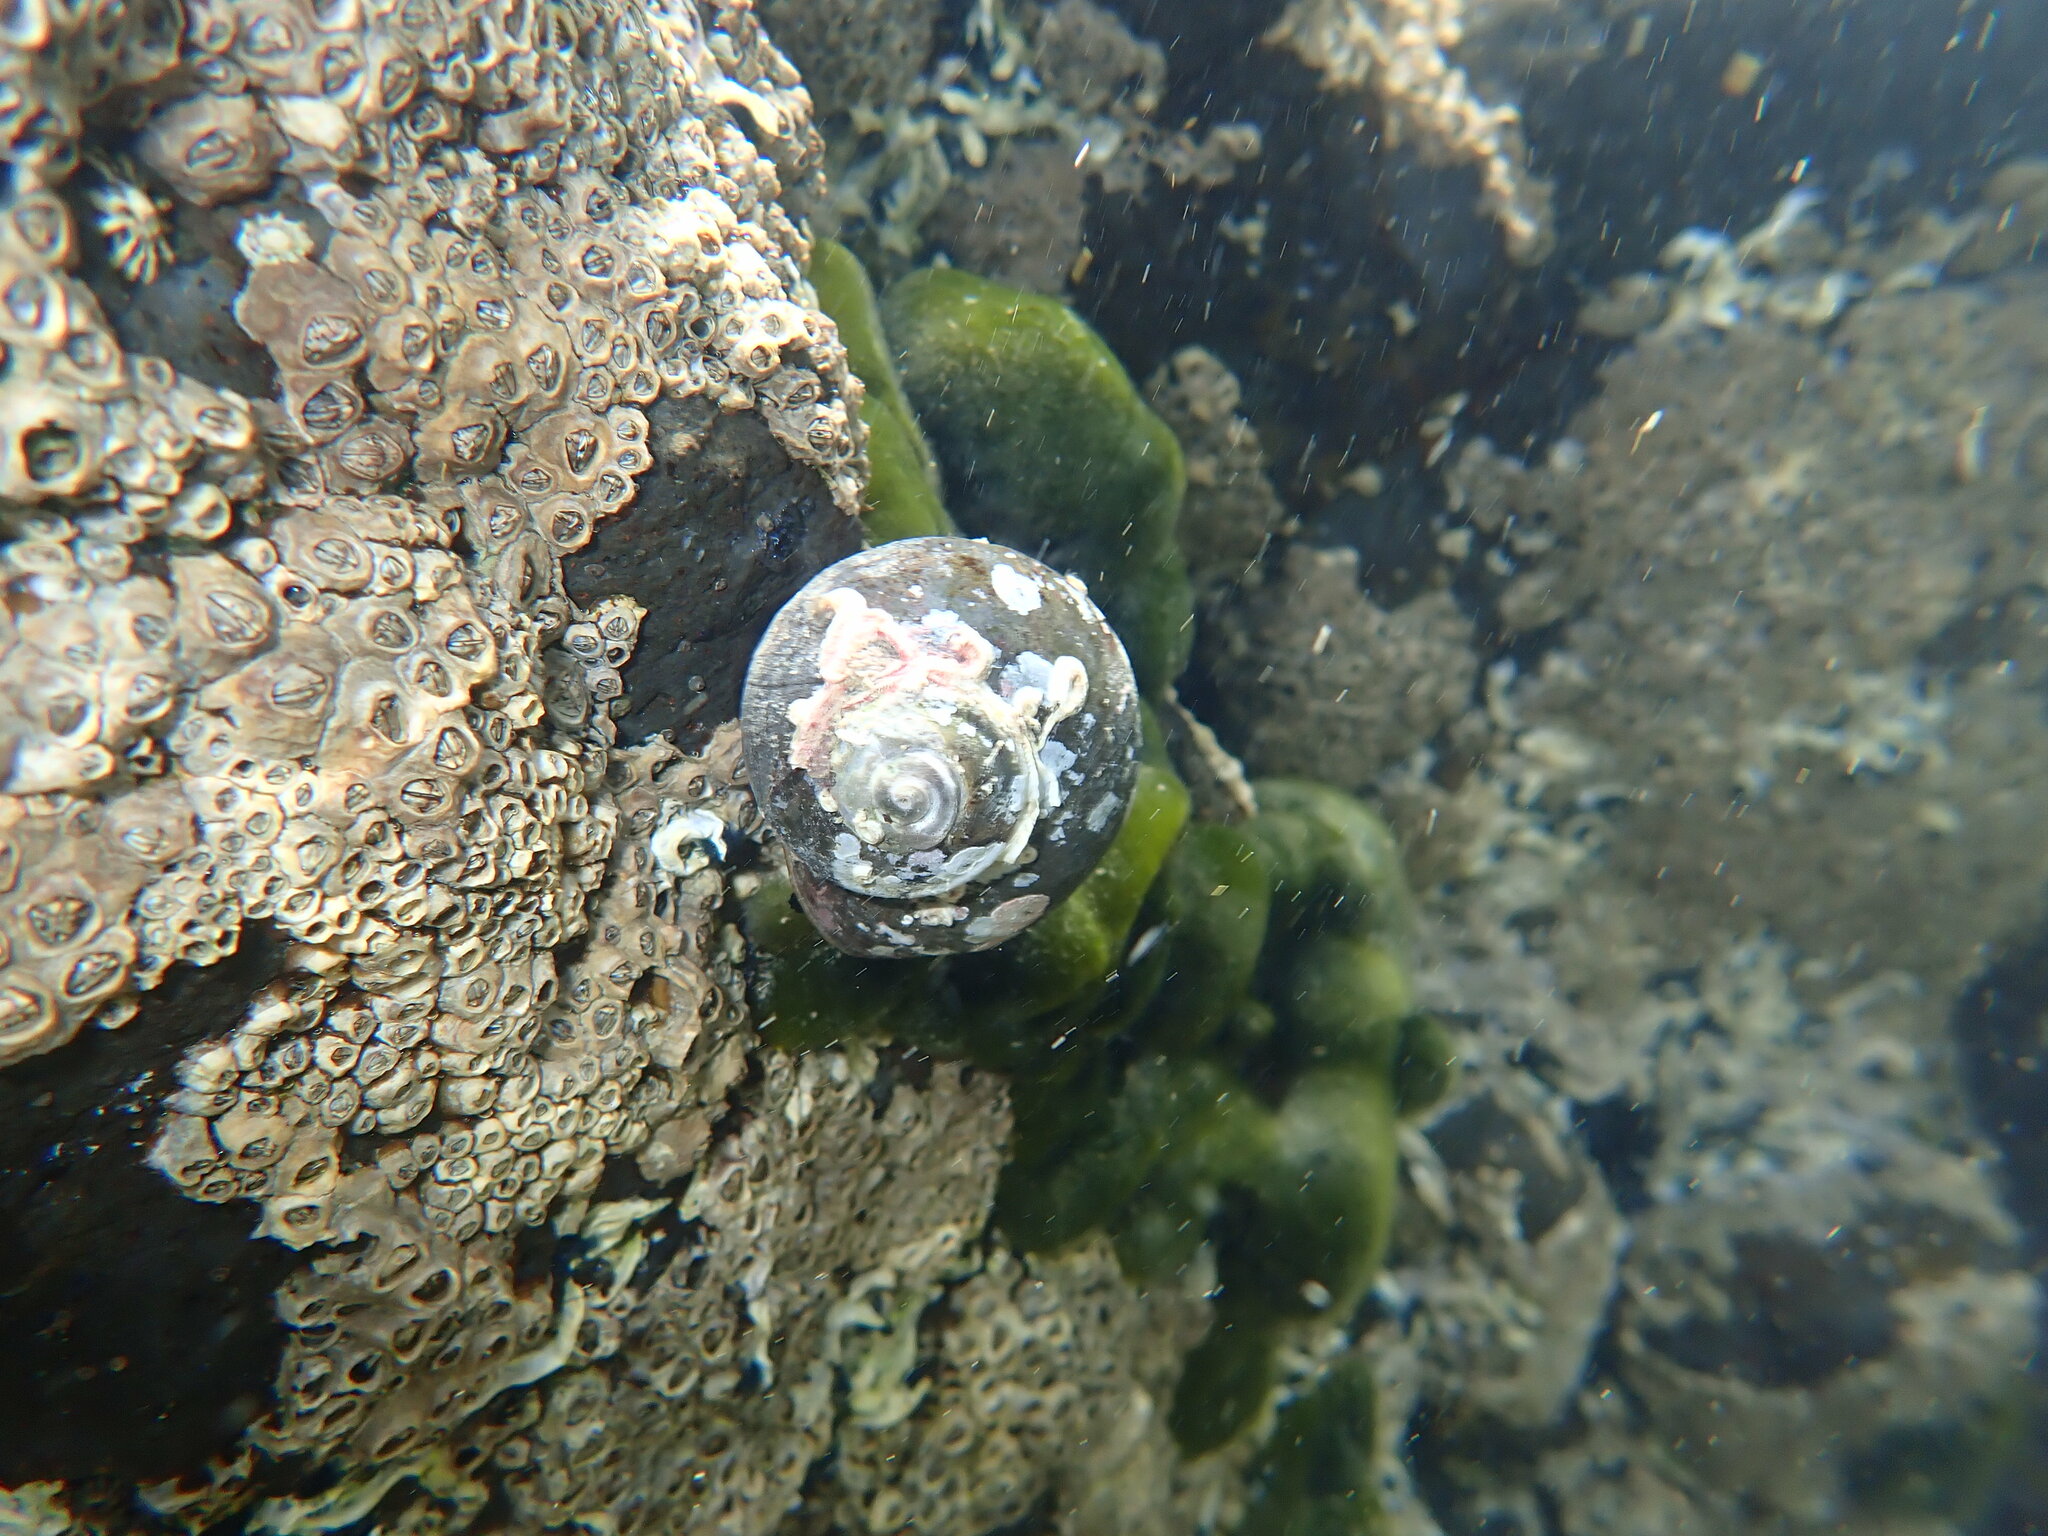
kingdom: Animalia
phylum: Mollusca
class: Gastropoda
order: Trochida
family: Turbinidae
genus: Lunella
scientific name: Lunella smaragda
